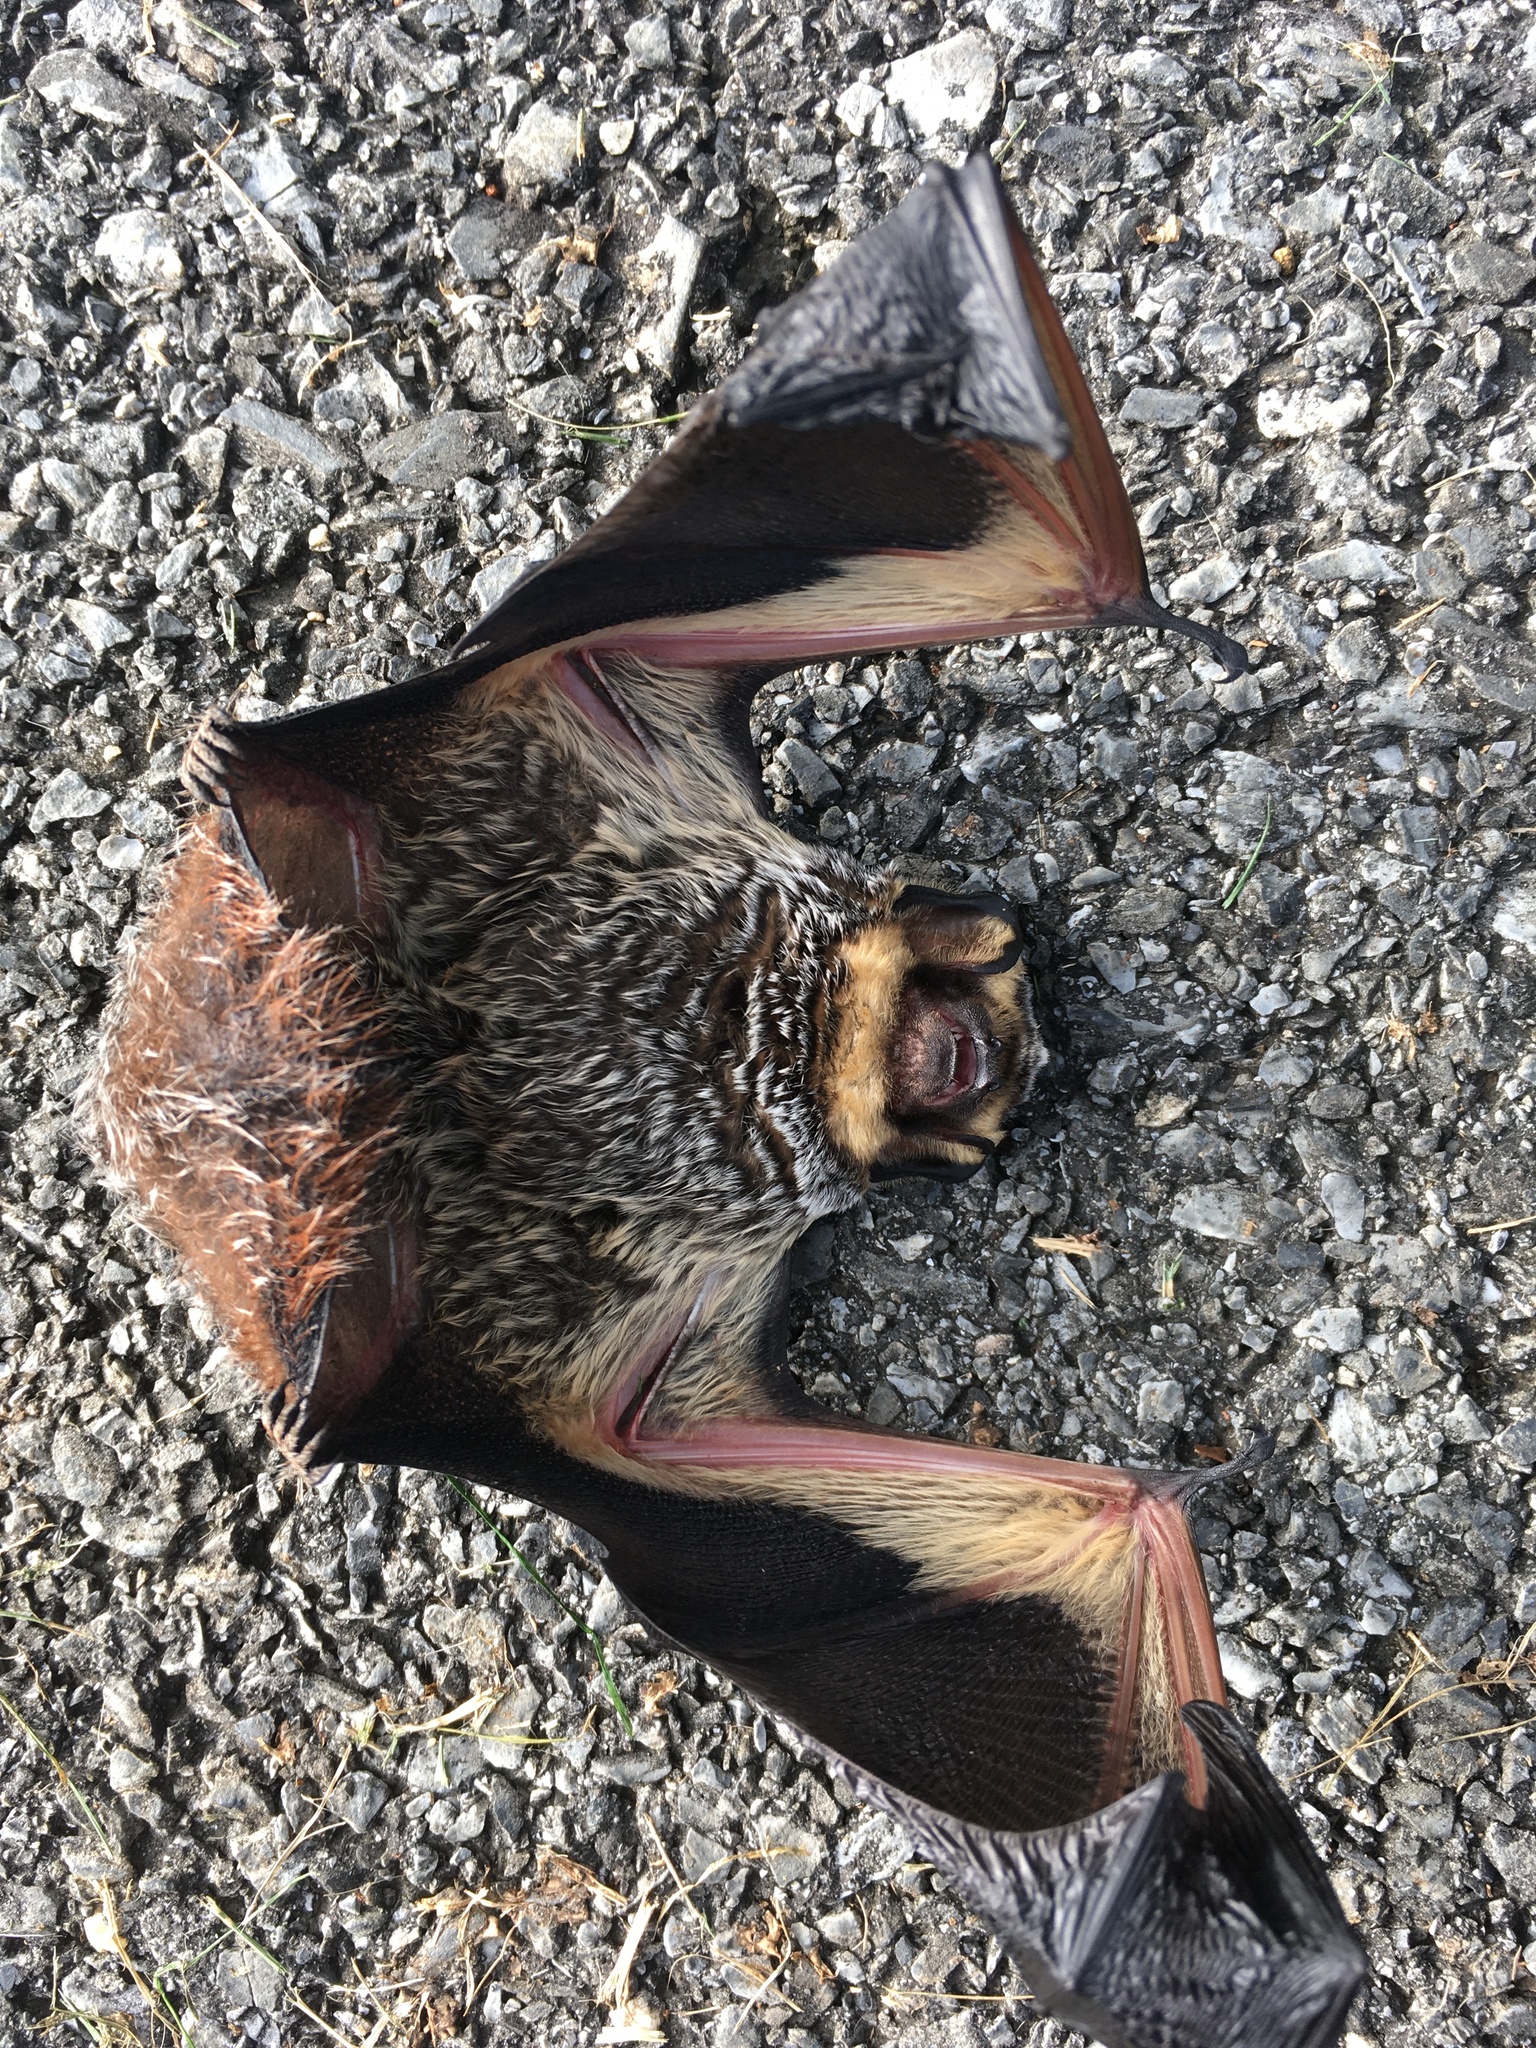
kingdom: Animalia
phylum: Chordata
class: Mammalia
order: Chiroptera
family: Vespertilionidae
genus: Aeorestes
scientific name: Aeorestes cinereus
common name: North american hoary bat
